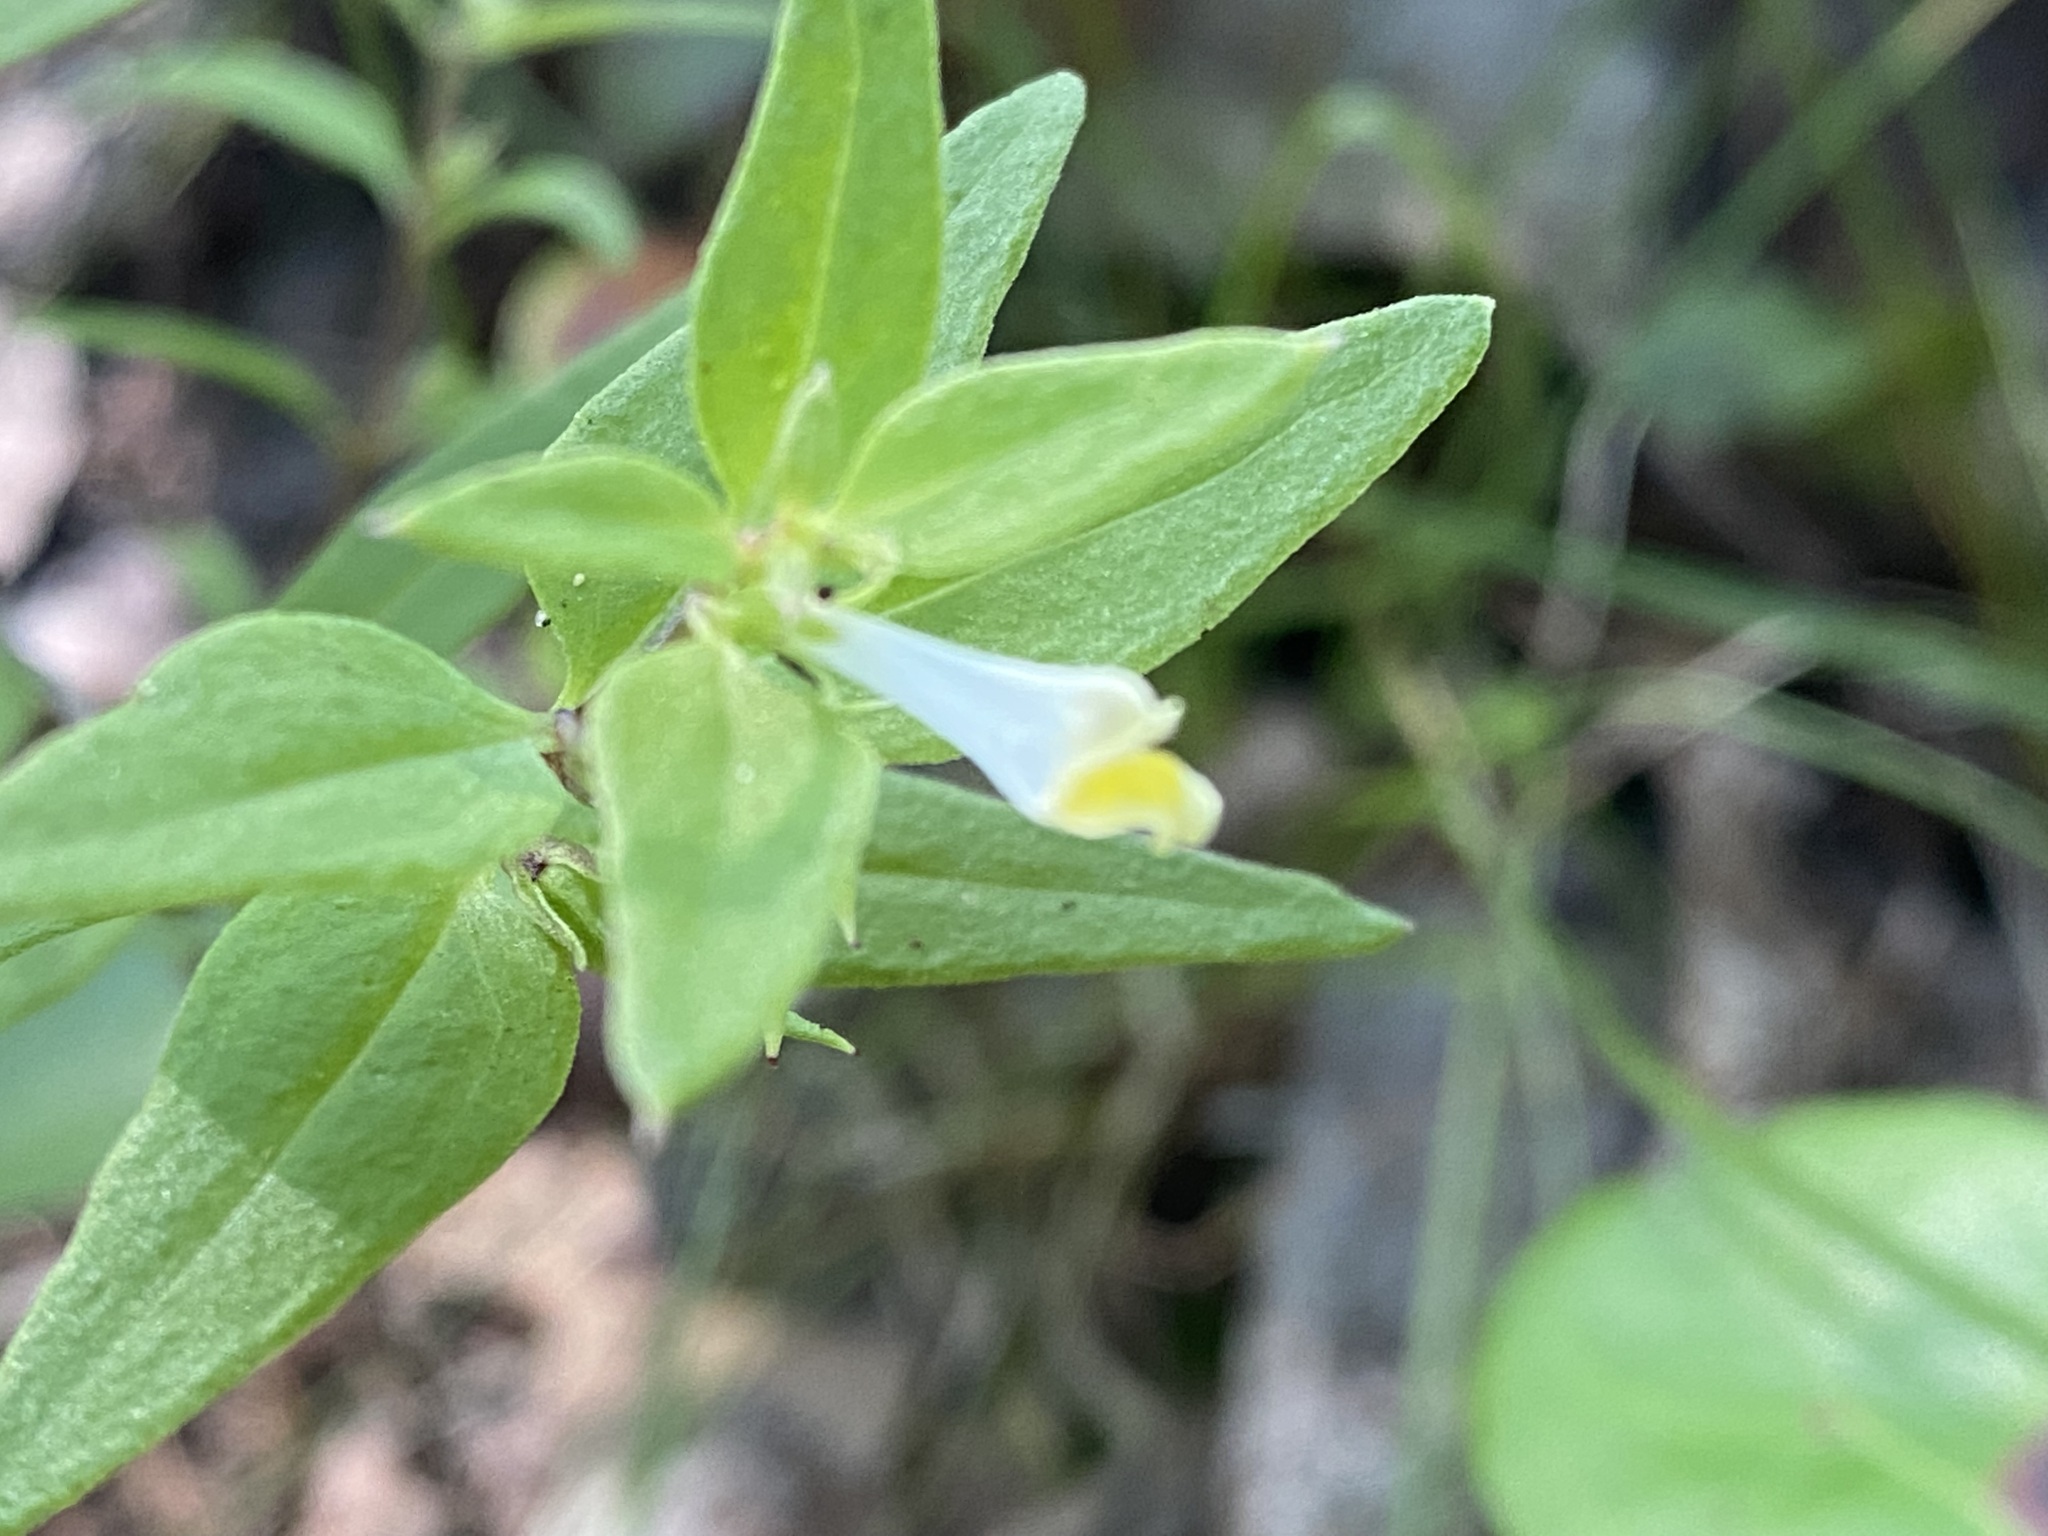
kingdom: Plantae
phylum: Tracheophyta
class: Magnoliopsida
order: Lamiales
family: Orobanchaceae
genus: Melampyrum
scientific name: Melampyrum lineare
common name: American cow-wheat
